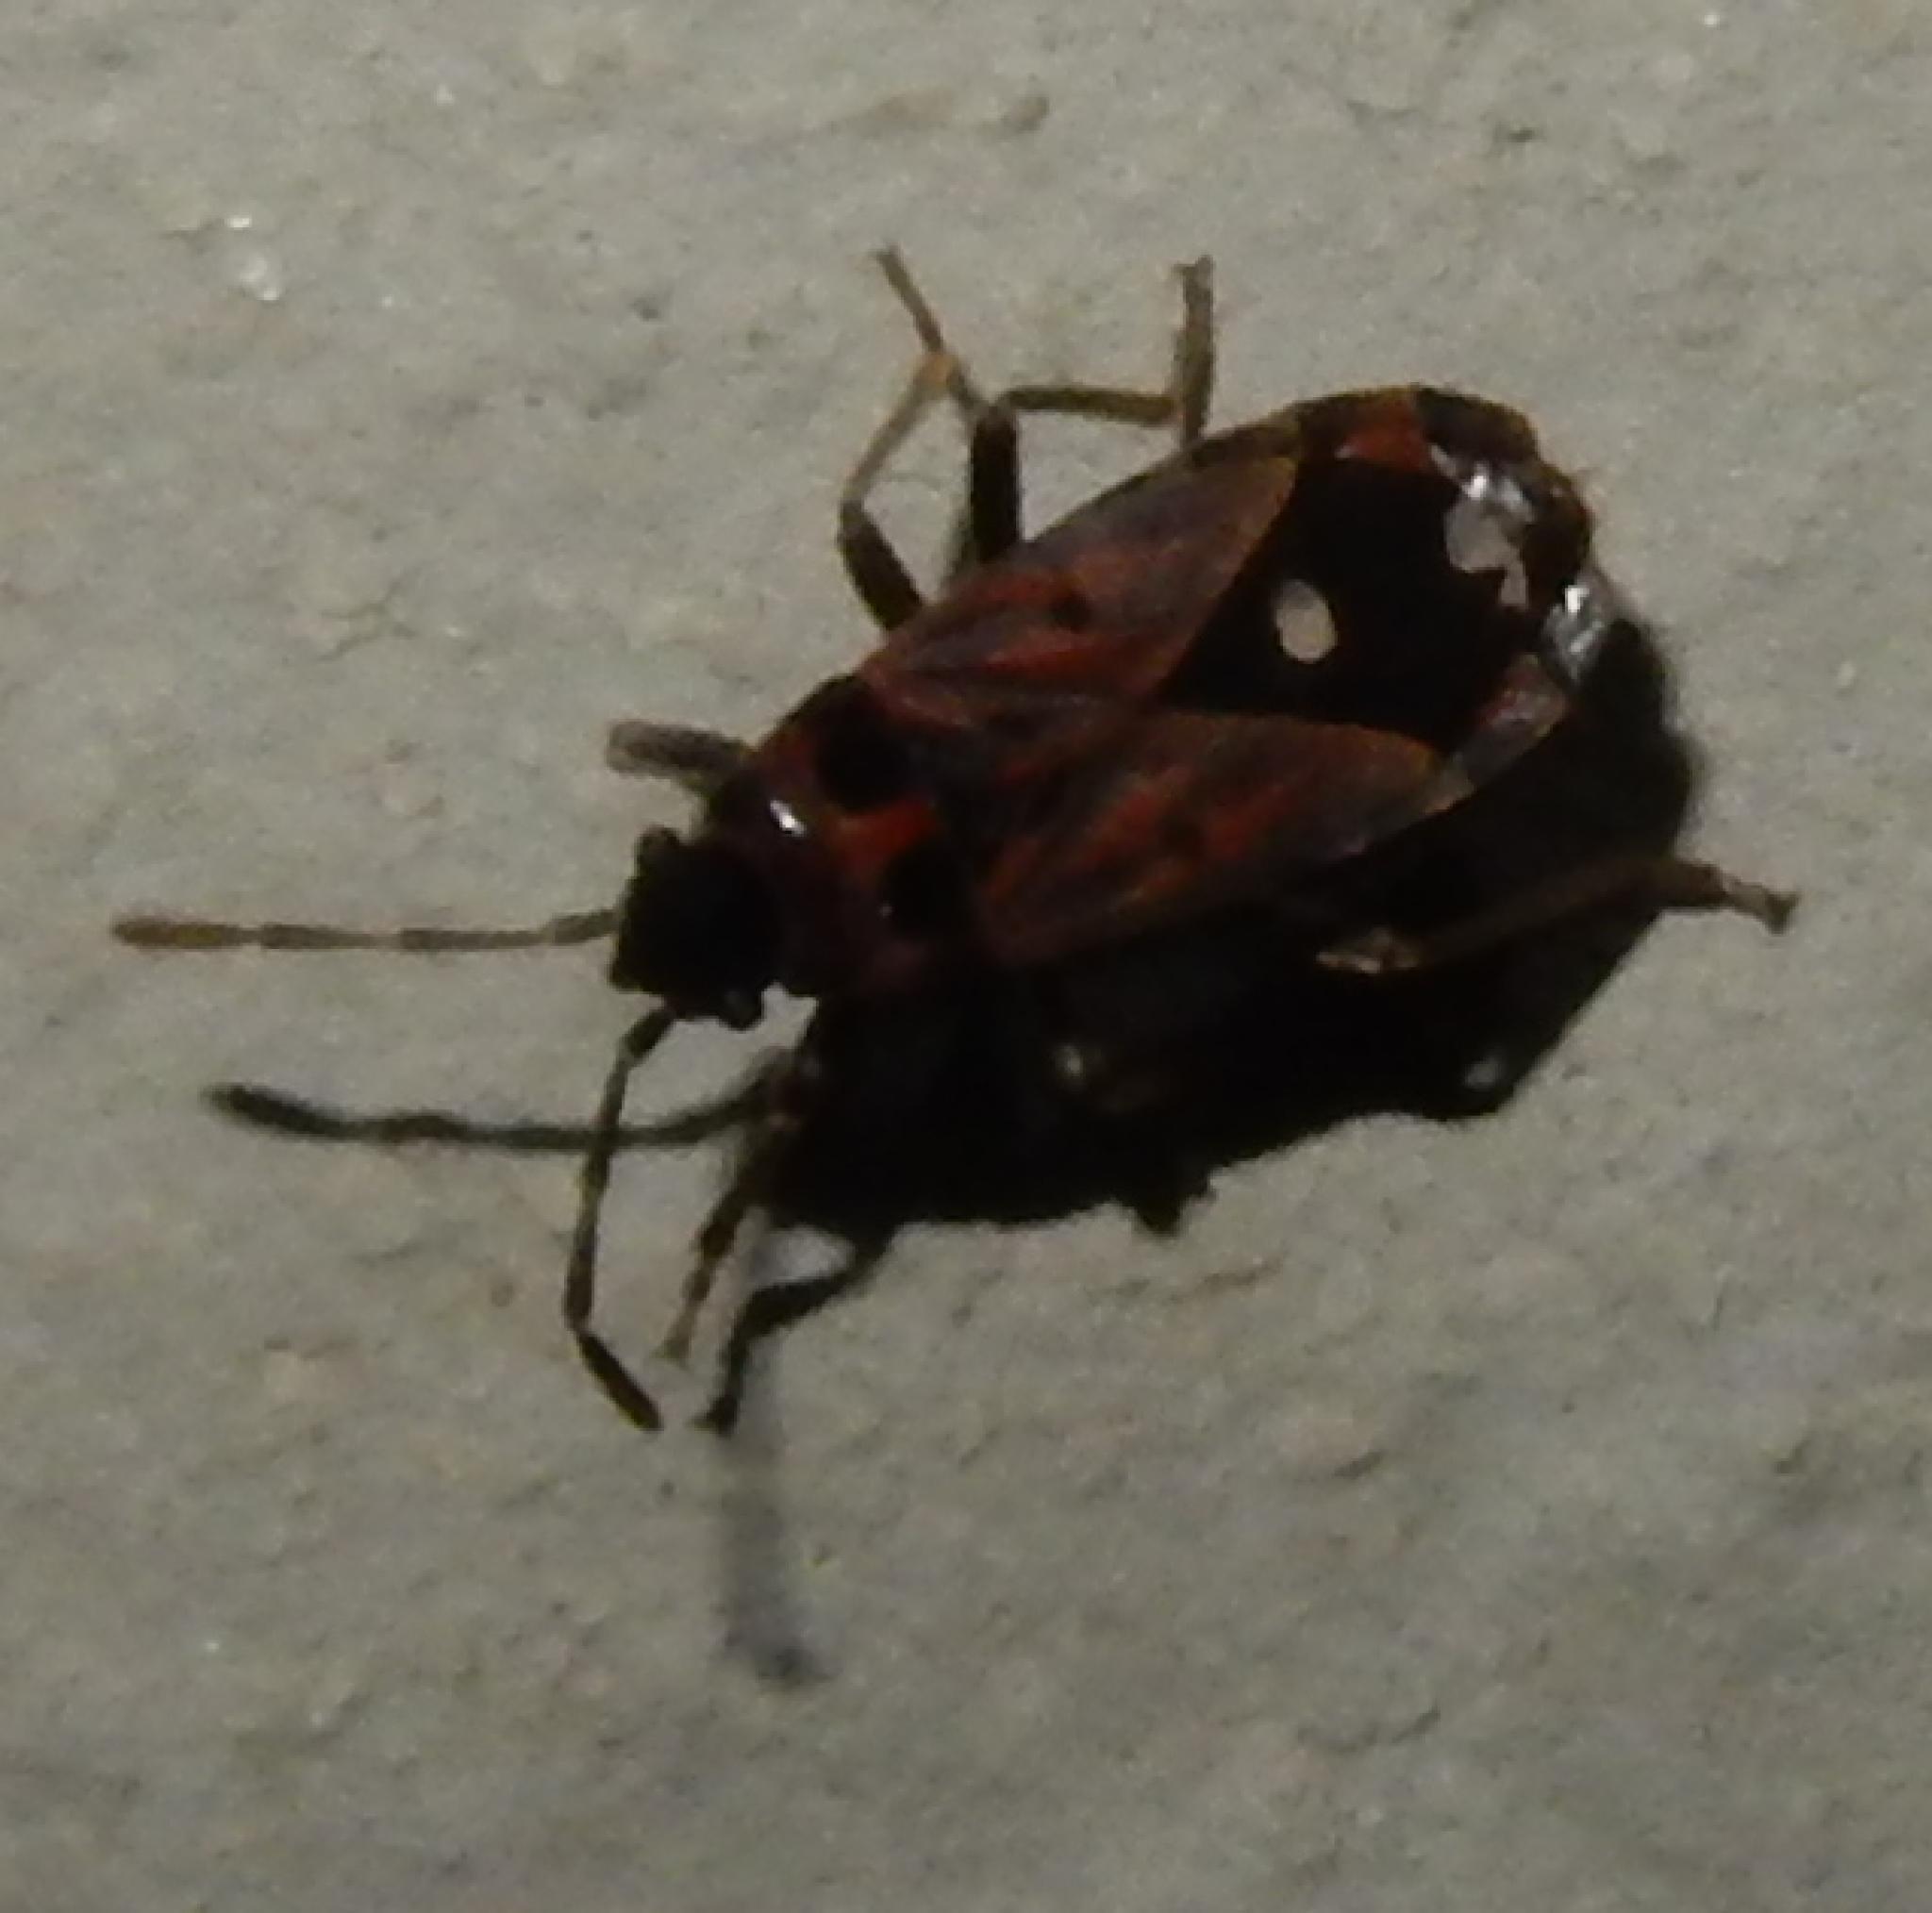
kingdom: Animalia
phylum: Arthropoda
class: Insecta
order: Hemiptera
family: Lygaeidae
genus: Horvathiolus
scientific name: Horvathiolus amoenulus
